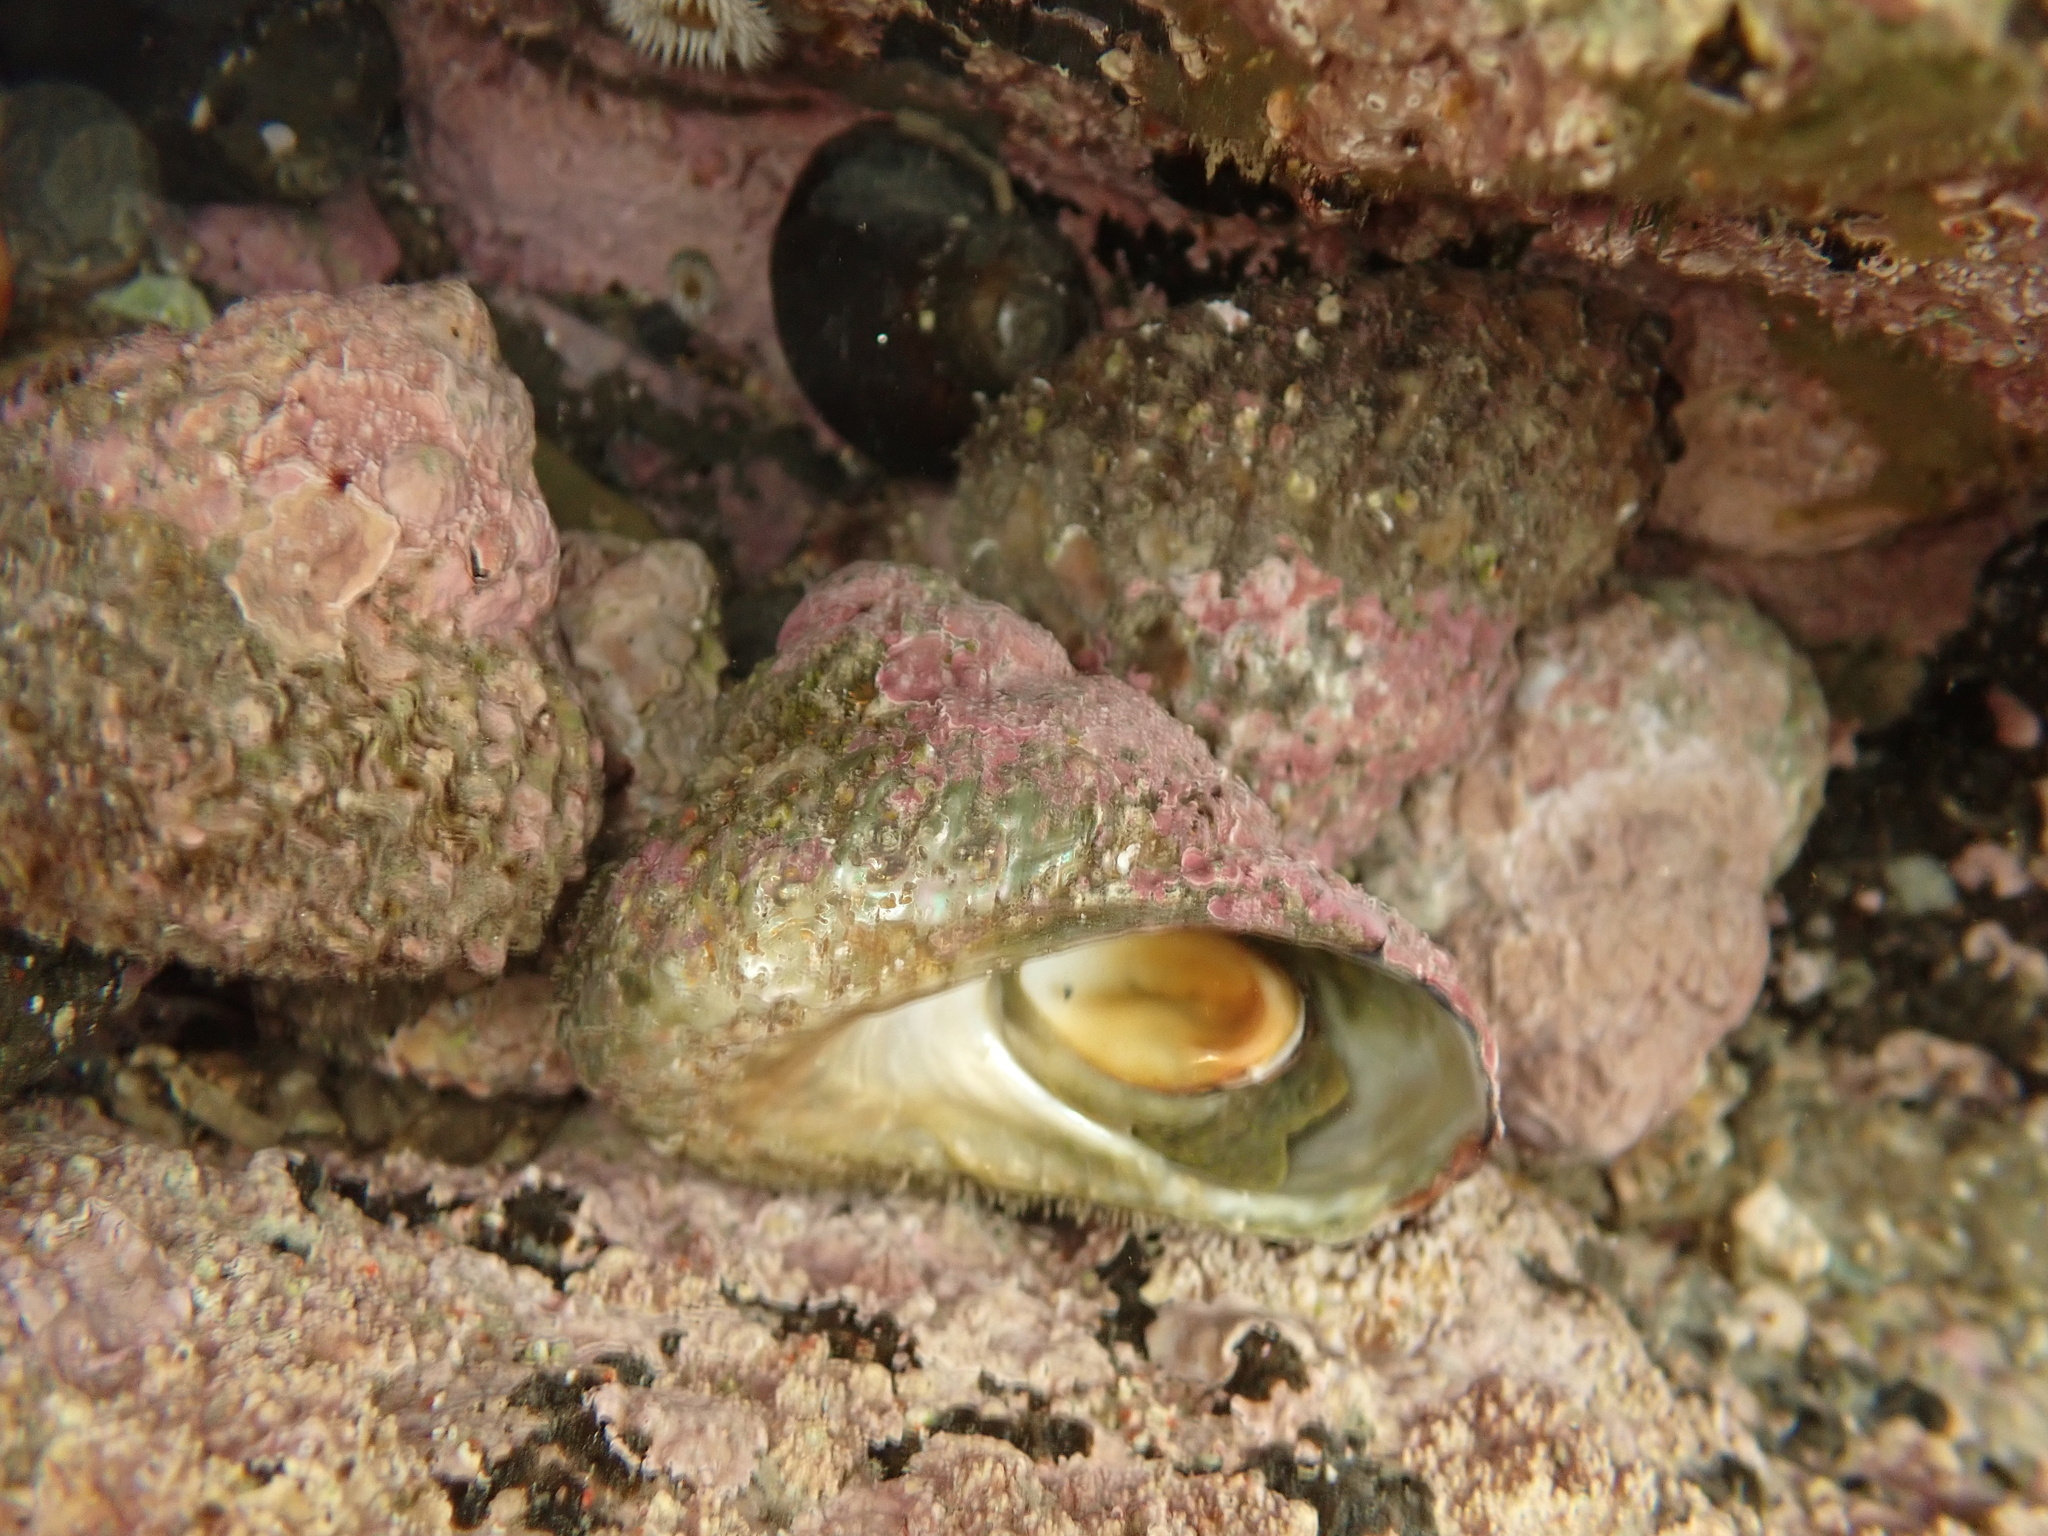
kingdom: Animalia
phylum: Mollusca
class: Gastropoda
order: Trochida
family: Turbinidae
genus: Cookia
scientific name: Cookia sulcata
